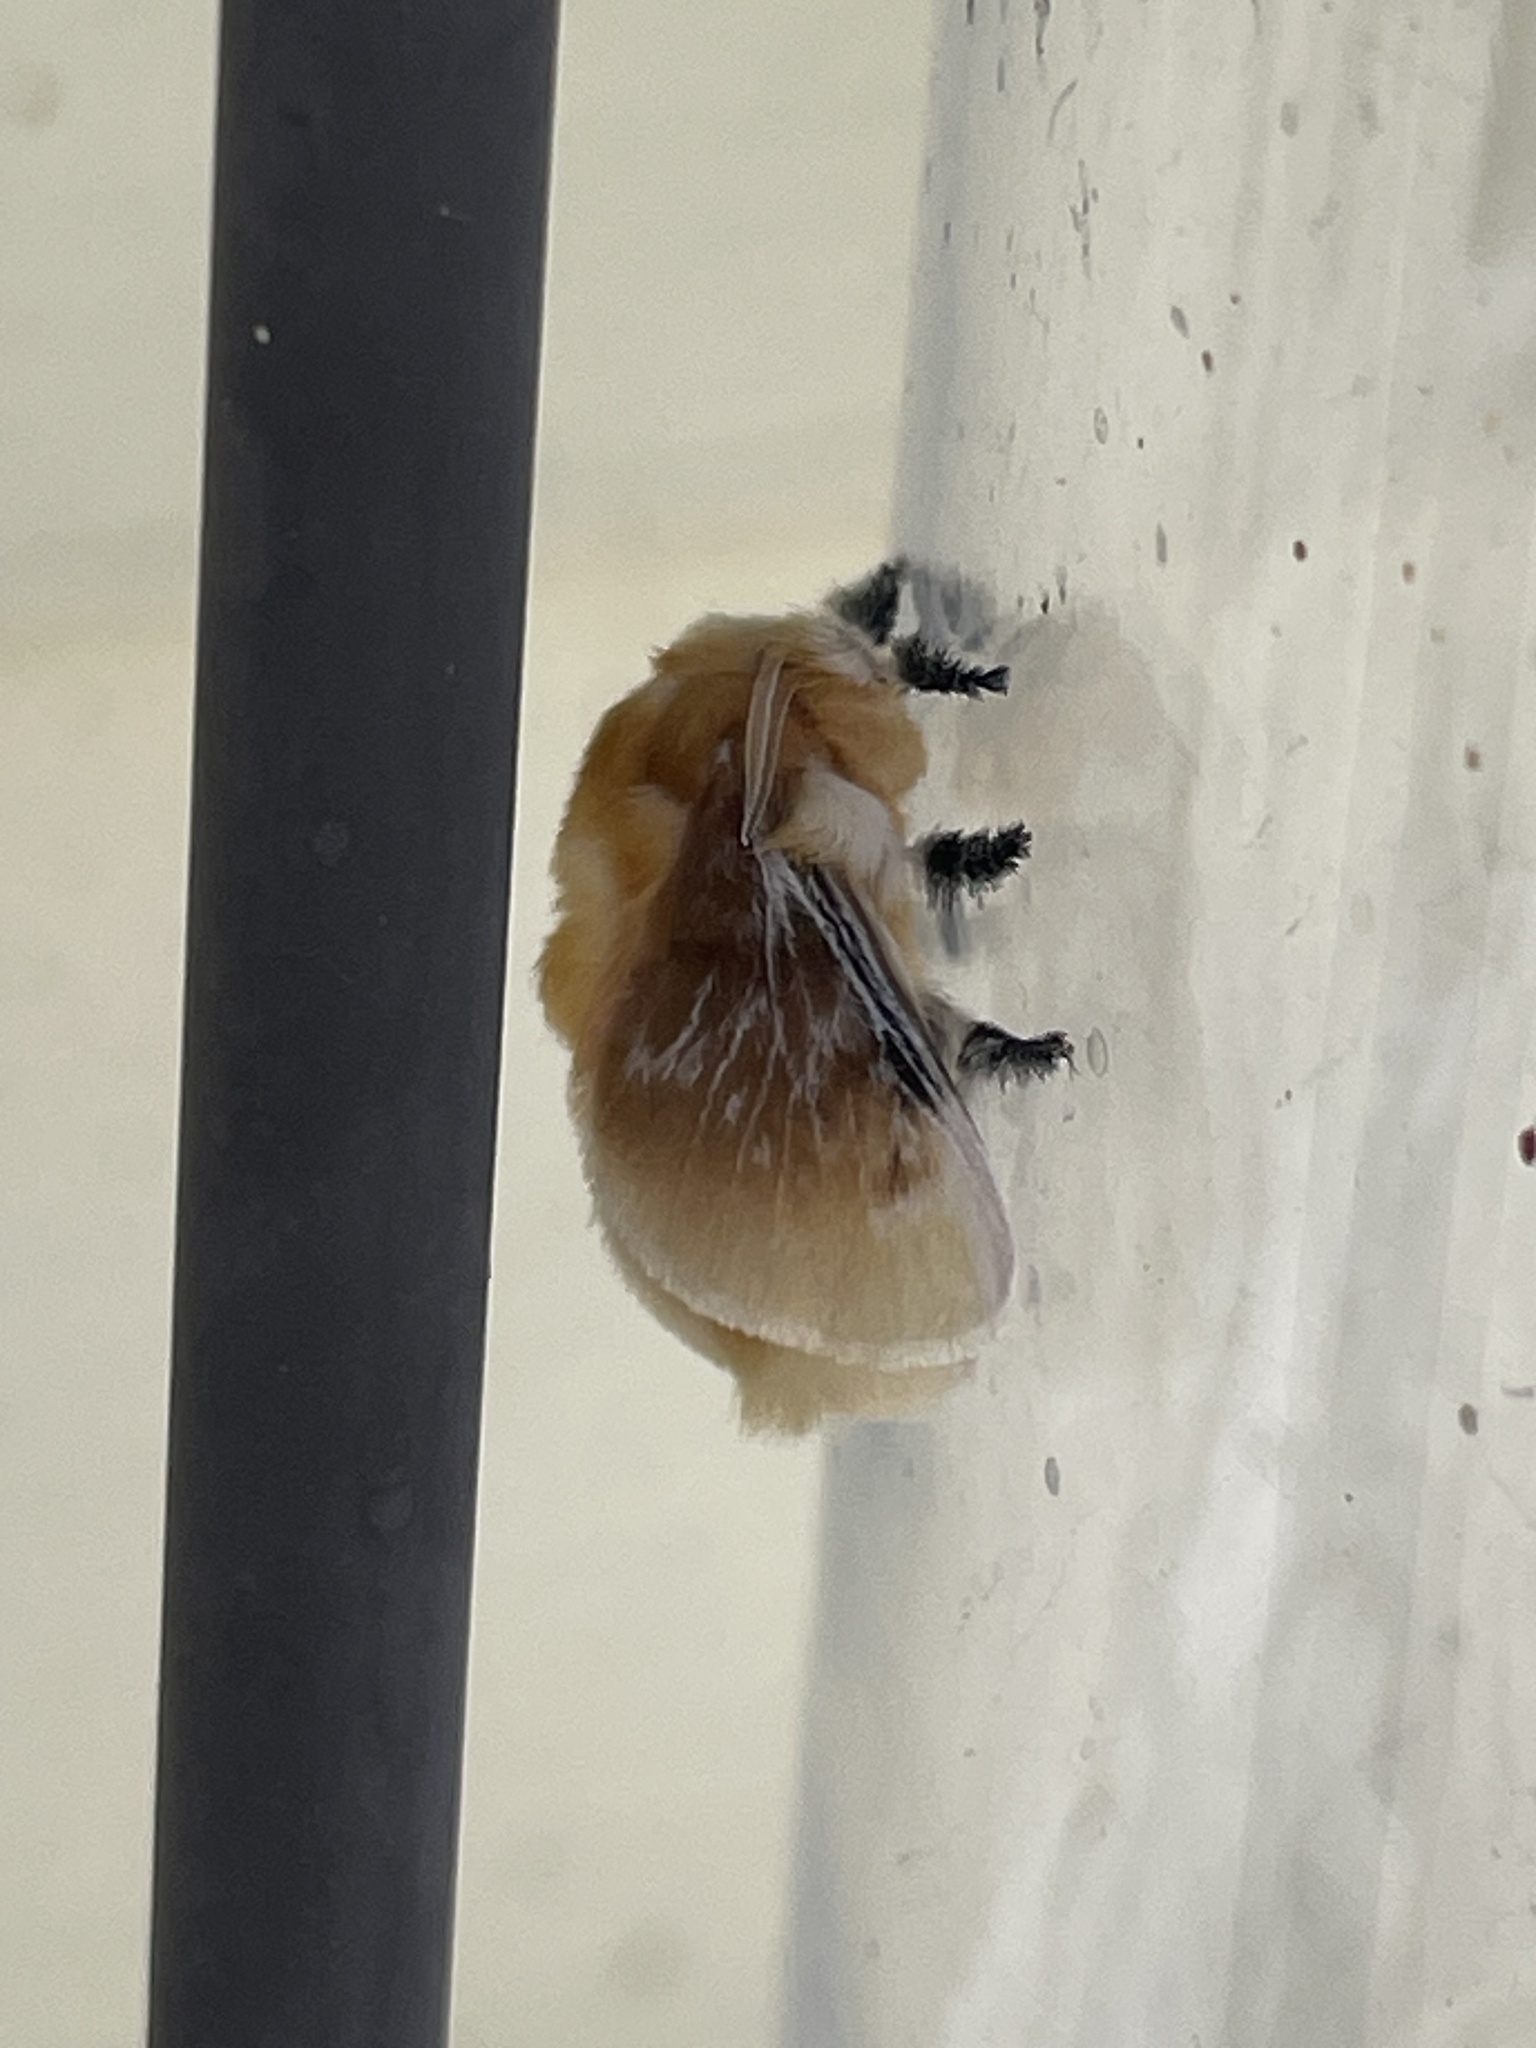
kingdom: Animalia
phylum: Arthropoda
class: Insecta
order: Lepidoptera
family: Megalopygidae
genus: Megalopyge
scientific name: Megalopyge opercularis
